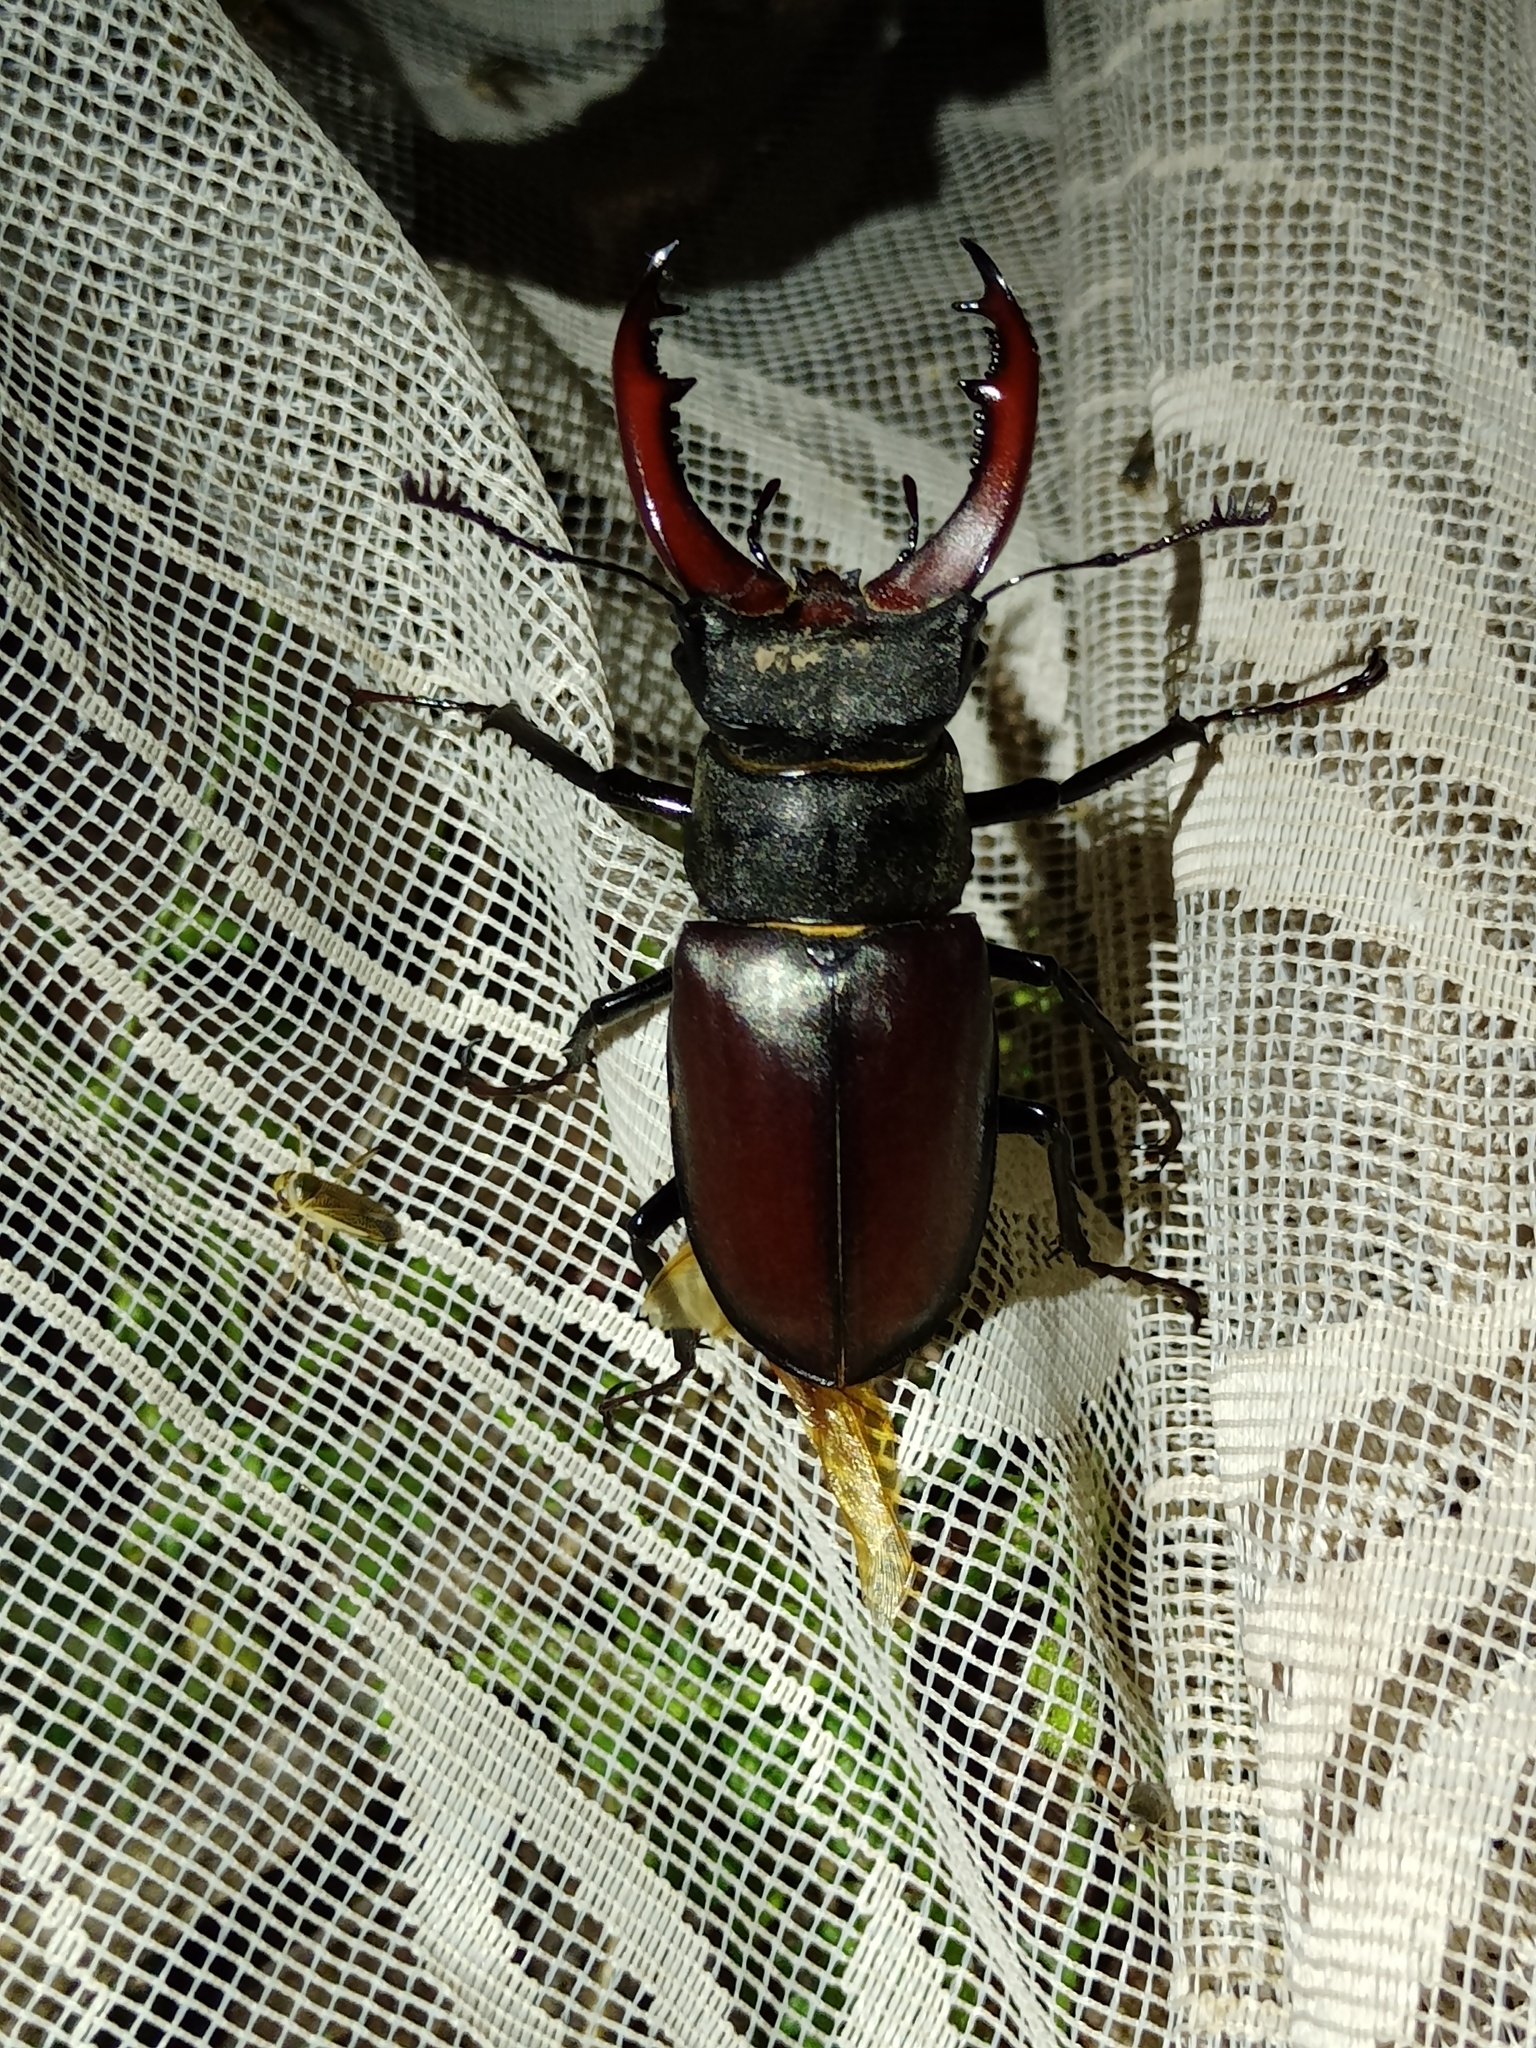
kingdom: Animalia
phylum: Arthropoda
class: Insecta
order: Coleoptera
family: Lucanidae
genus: Lucanus
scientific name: Lucanus cervus
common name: Stag beetle
